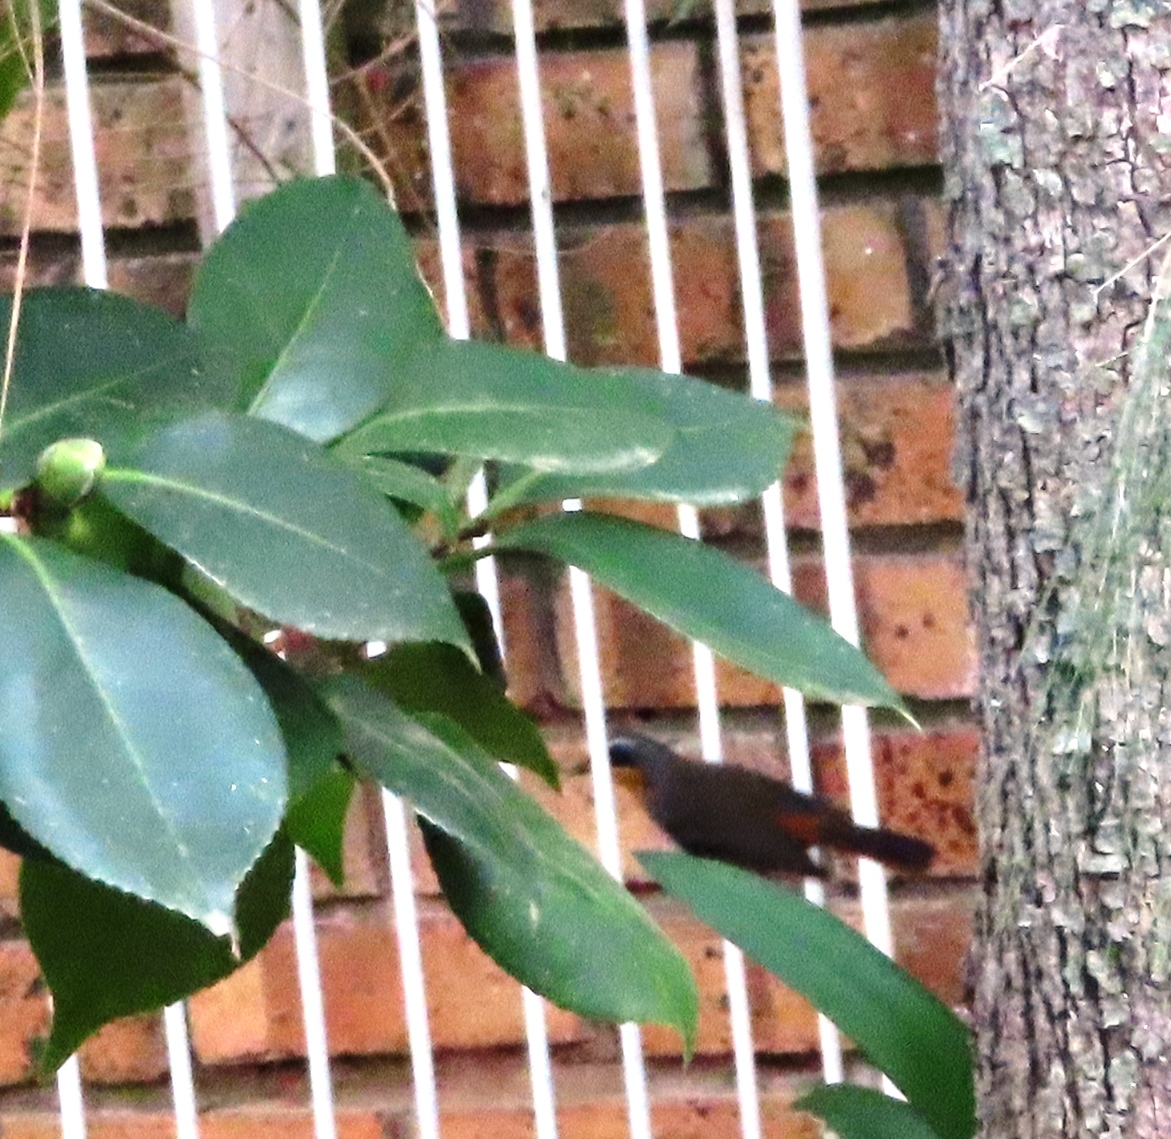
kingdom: Animalia
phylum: Chordata
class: Aves
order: Passeriformes
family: Muscicapidae
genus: Cossypha
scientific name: Cossypha caffra
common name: Cape robin-chat
